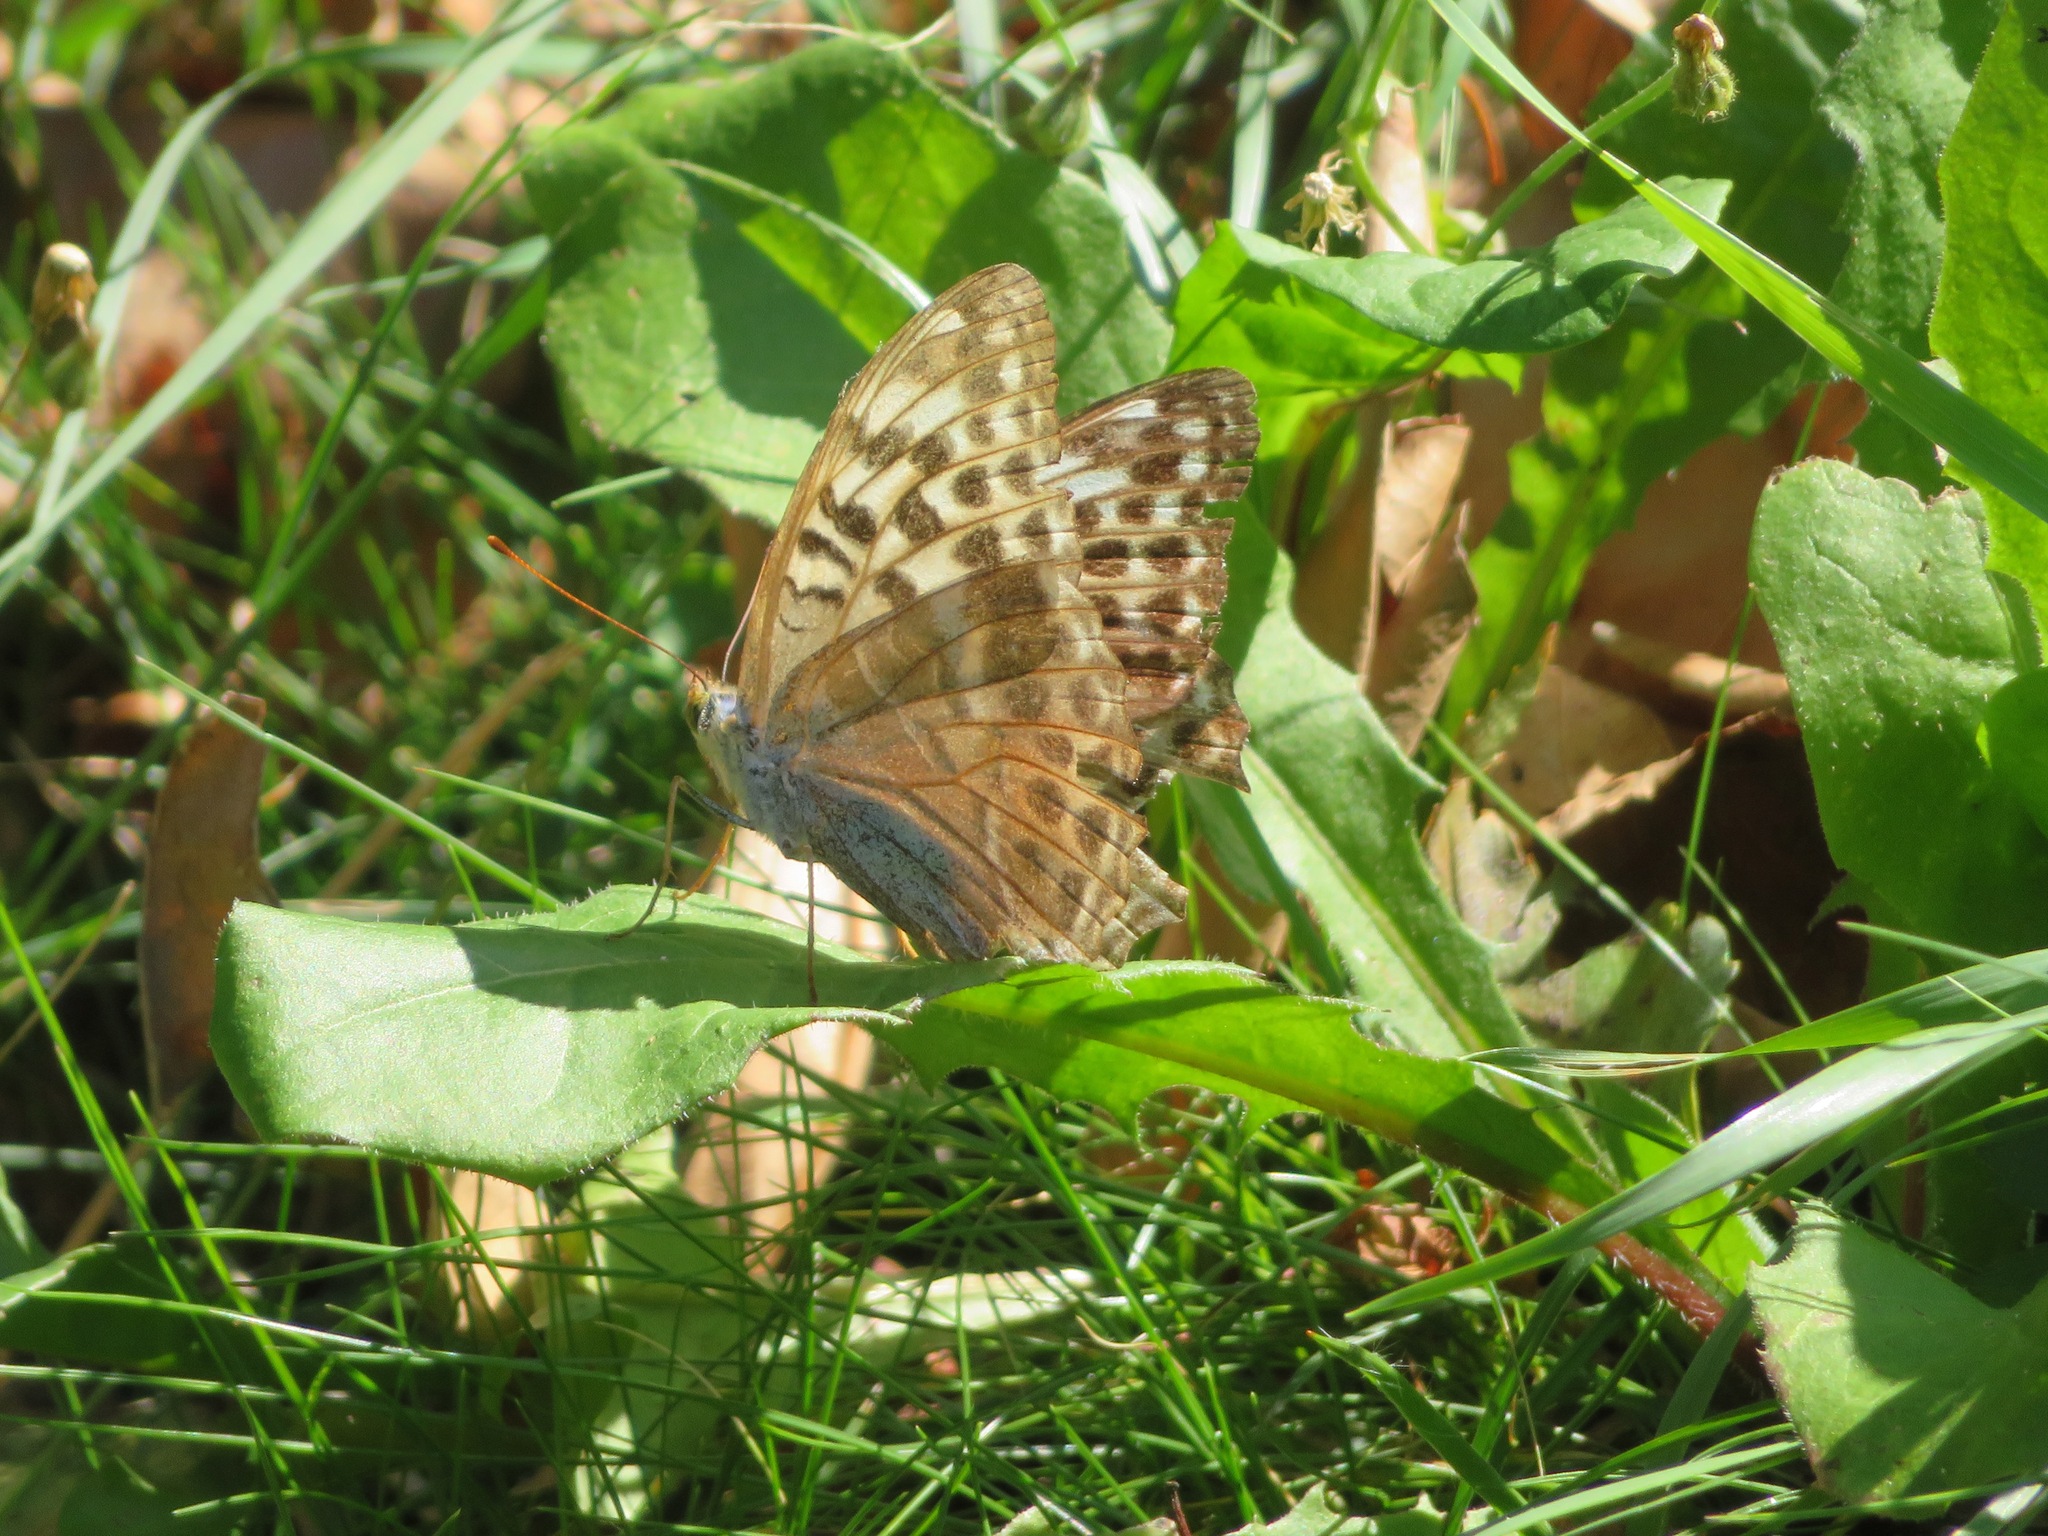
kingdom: Animalia
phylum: Arthropoda
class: Insecta
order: Lepidoptera
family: Nymphalidae
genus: Argynnis
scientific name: Argynnis paphia
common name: Silver-washed fritillary
